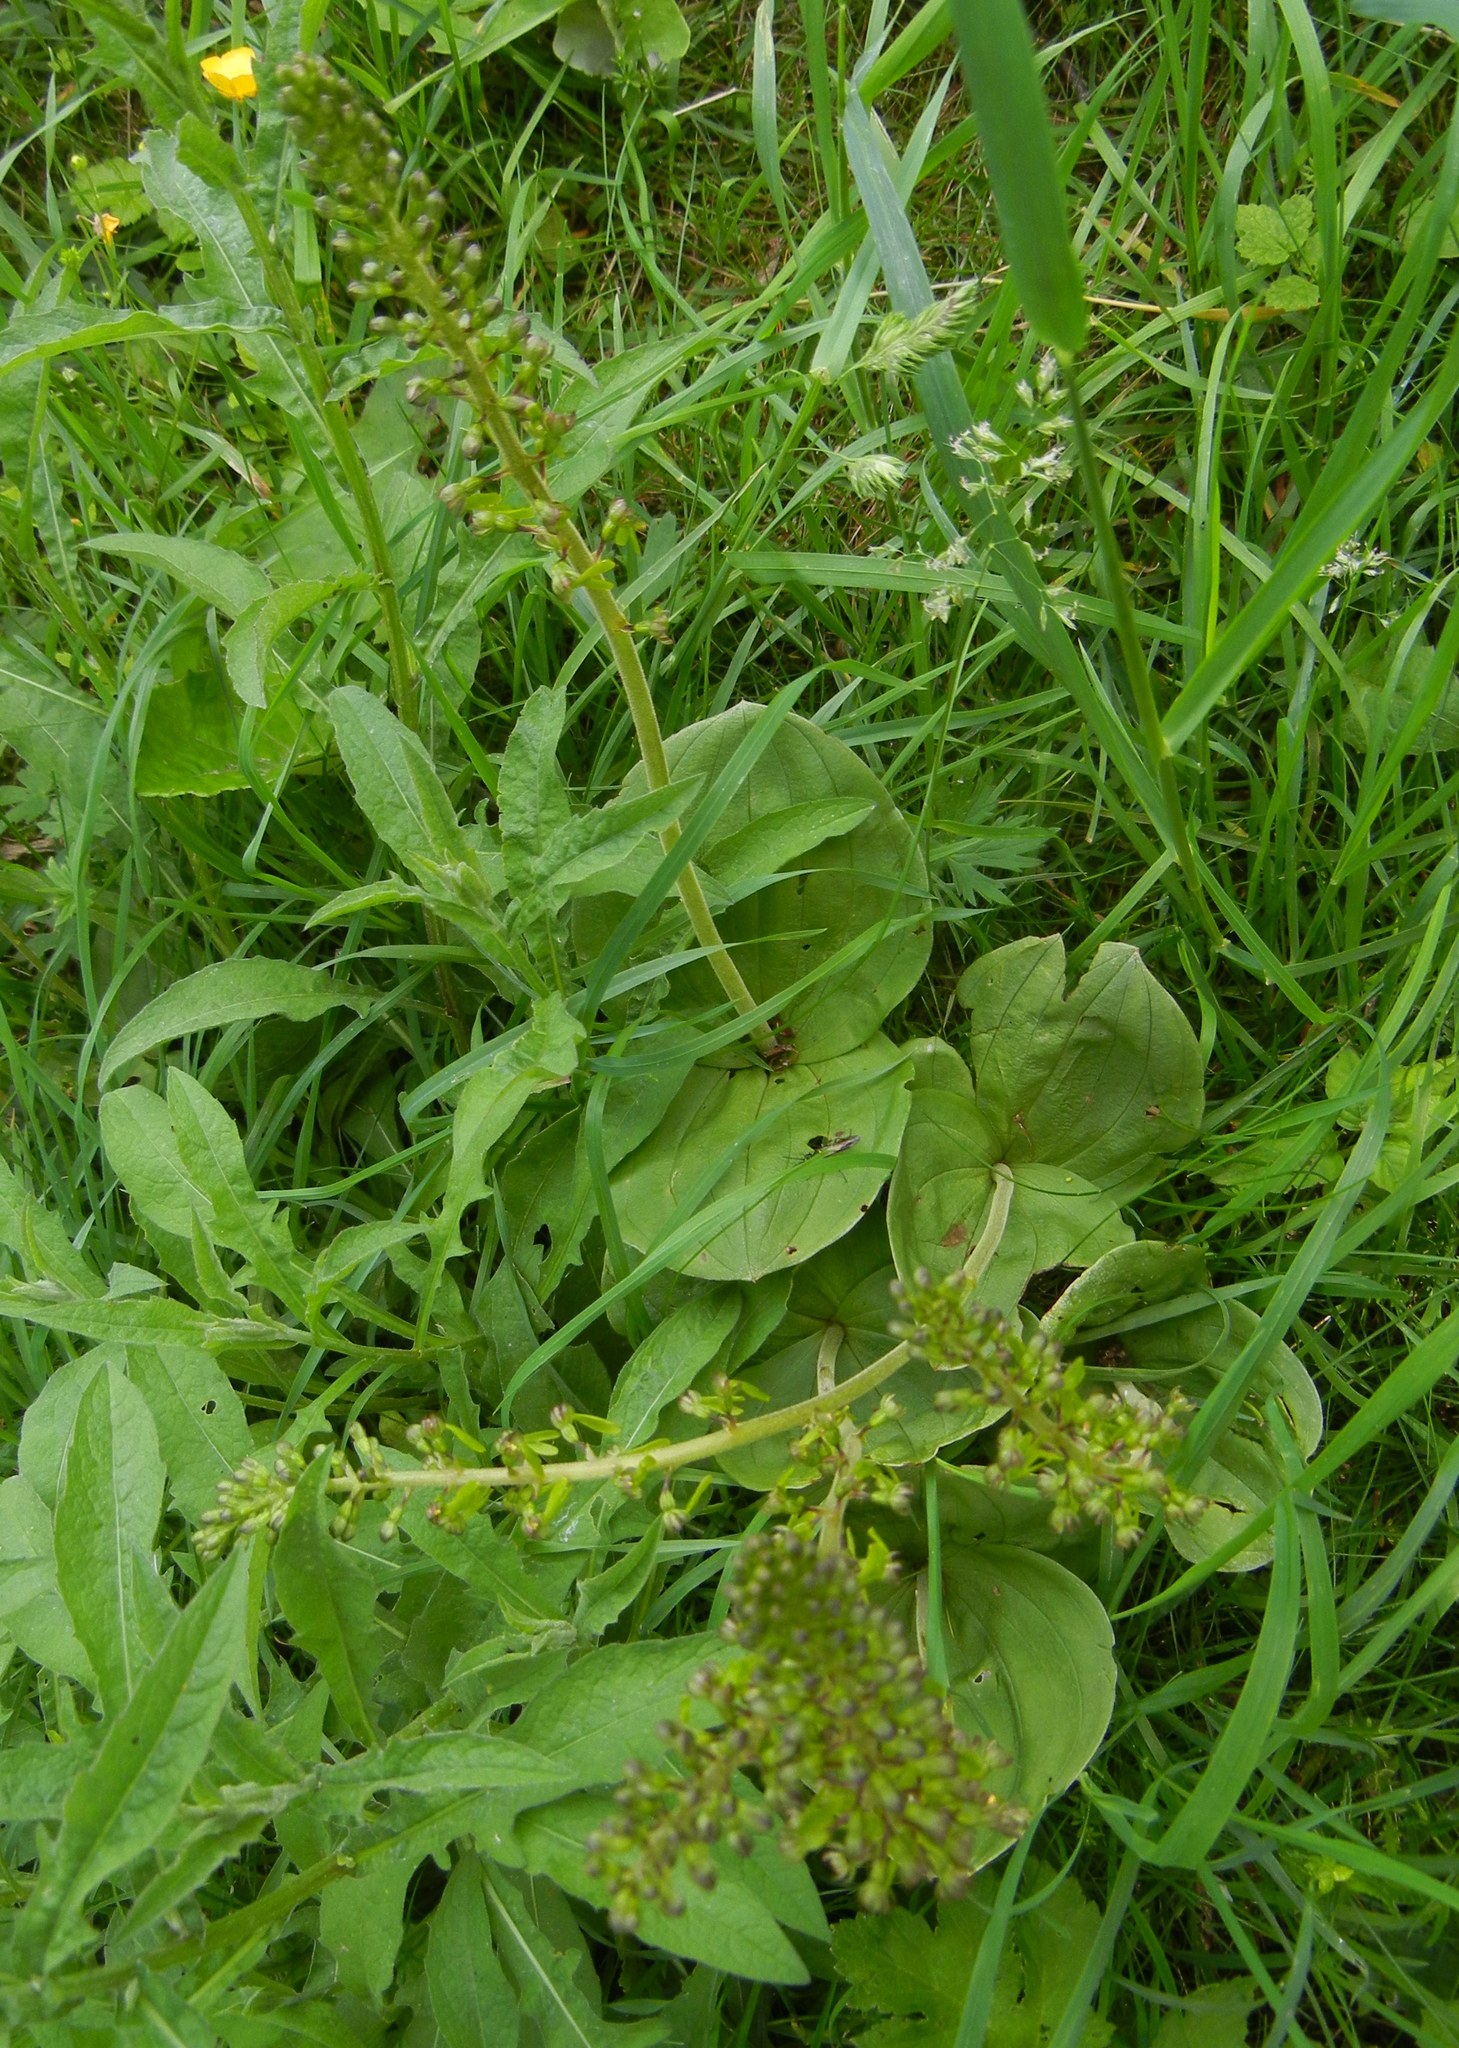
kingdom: Plantae
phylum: Tracheophyta
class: Liliopsida
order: Asparagales
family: Orchidaceae
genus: Neottia
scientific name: Neottia ovata
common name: Common twayblade
